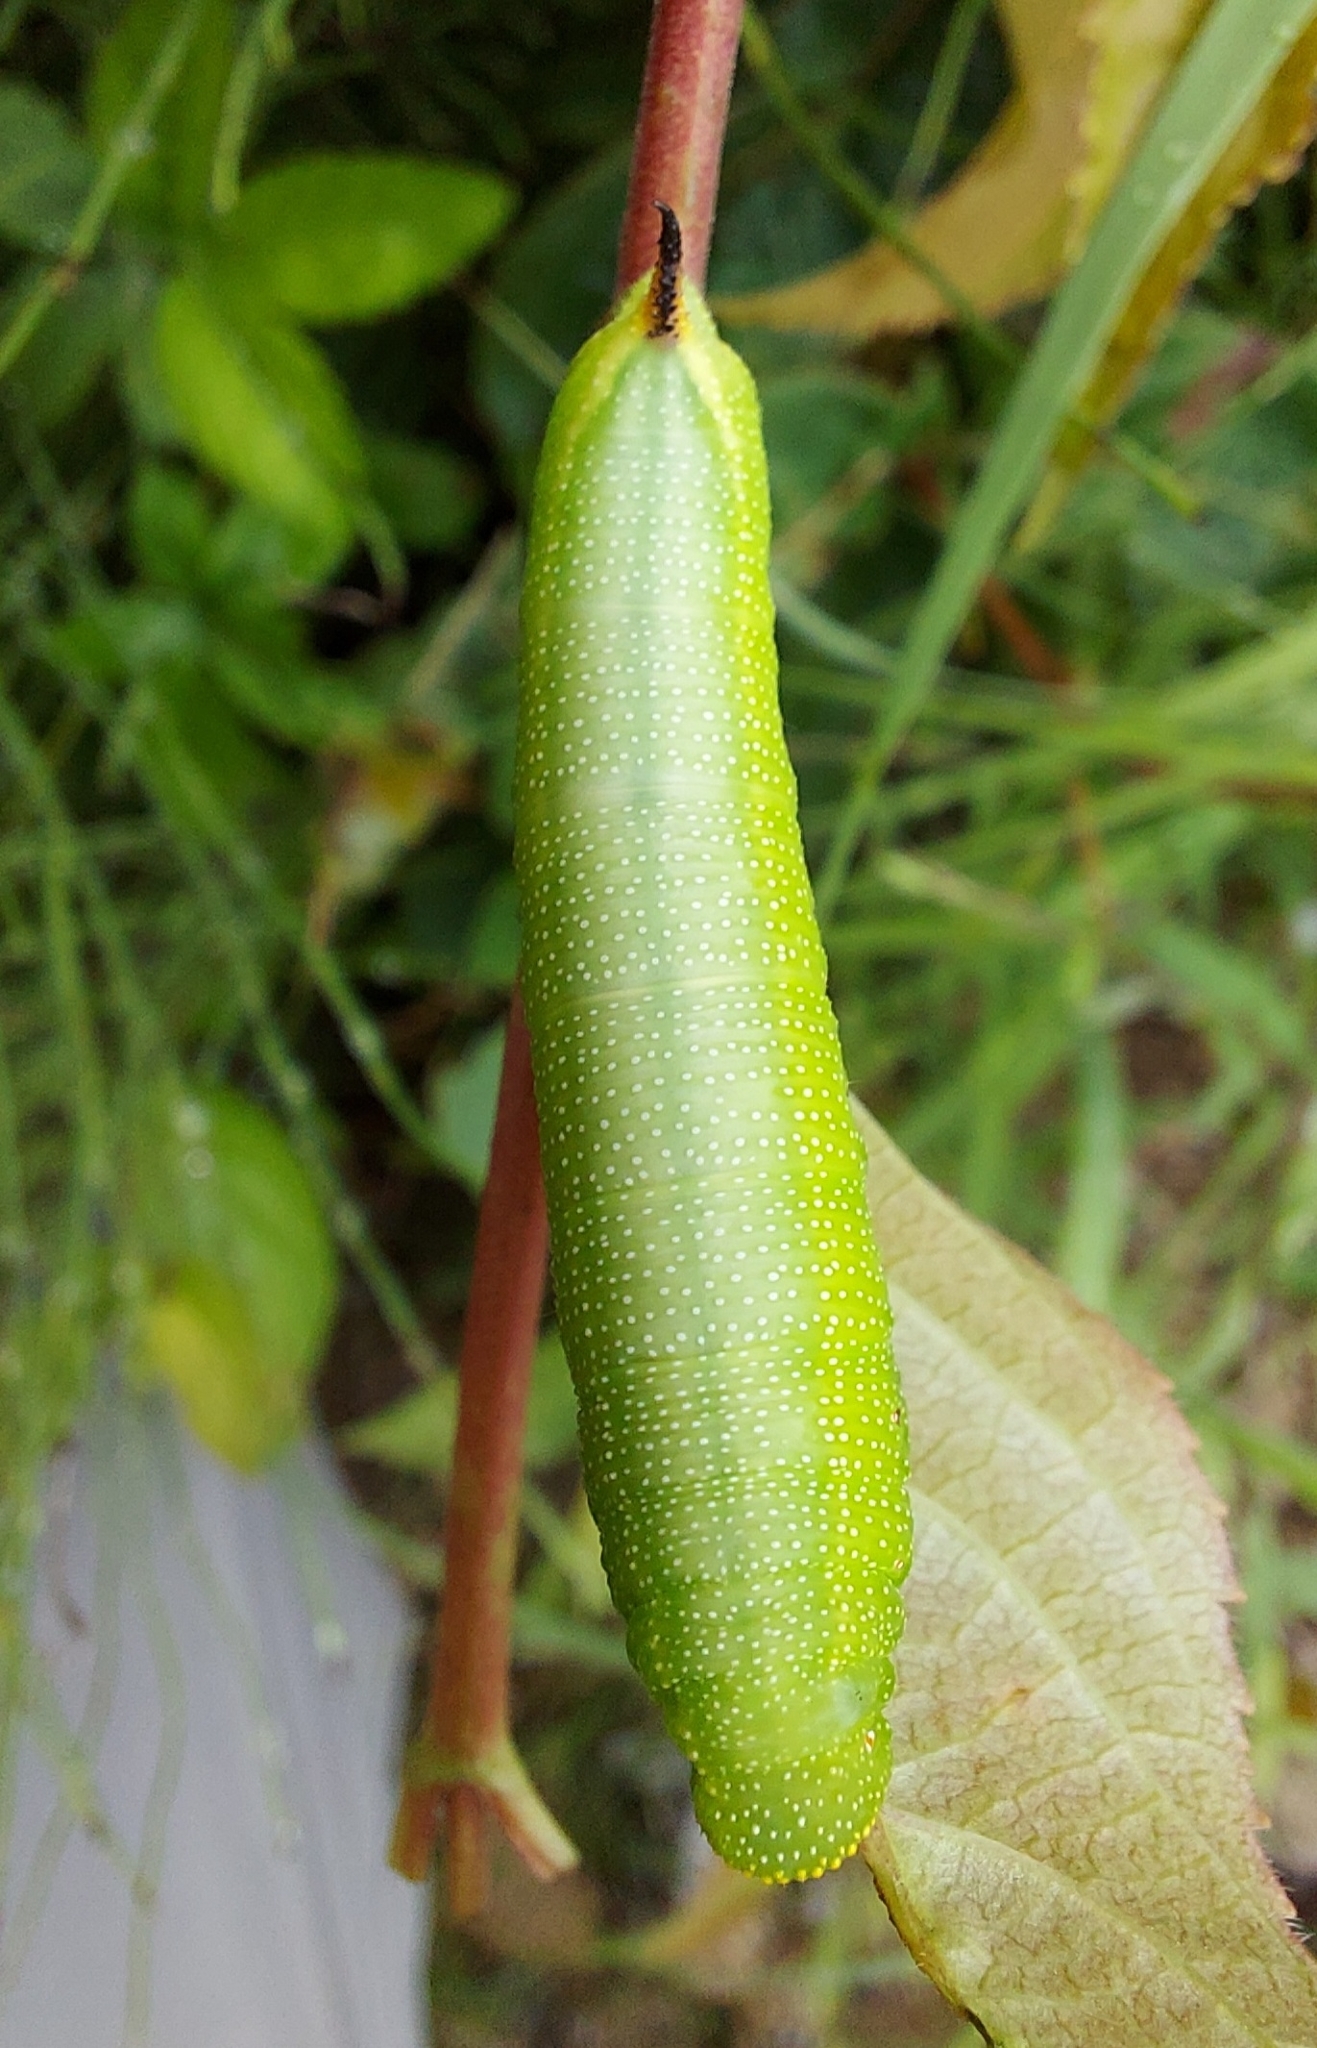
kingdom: Animalia
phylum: Arthropoda
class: Insecta
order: Lepidoptera
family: Sphingidae
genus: Hemaris
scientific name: Hemaris diffinis
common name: Bumblebee moth
